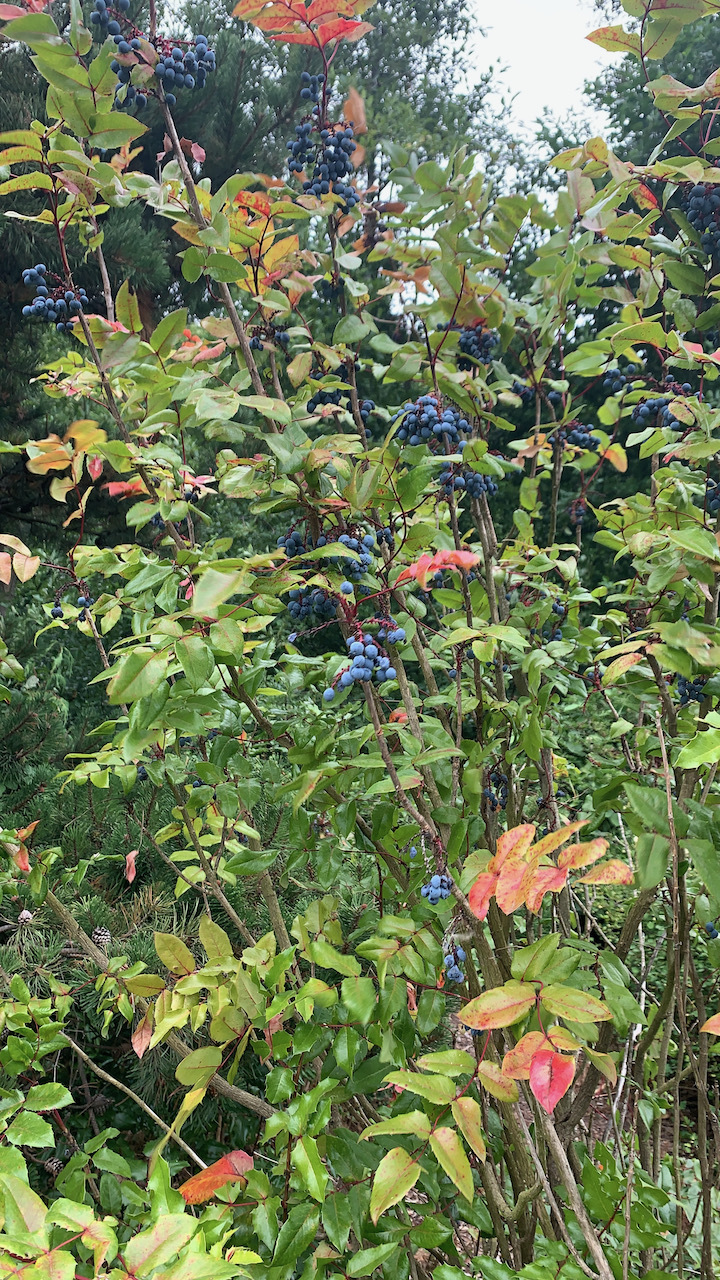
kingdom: Plantae
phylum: Tracheophyta
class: Magnoliopsida
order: Ranunculales
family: Berberidaceae
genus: Mahonia
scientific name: Mahonia aquifolium
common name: Oregon-grape
